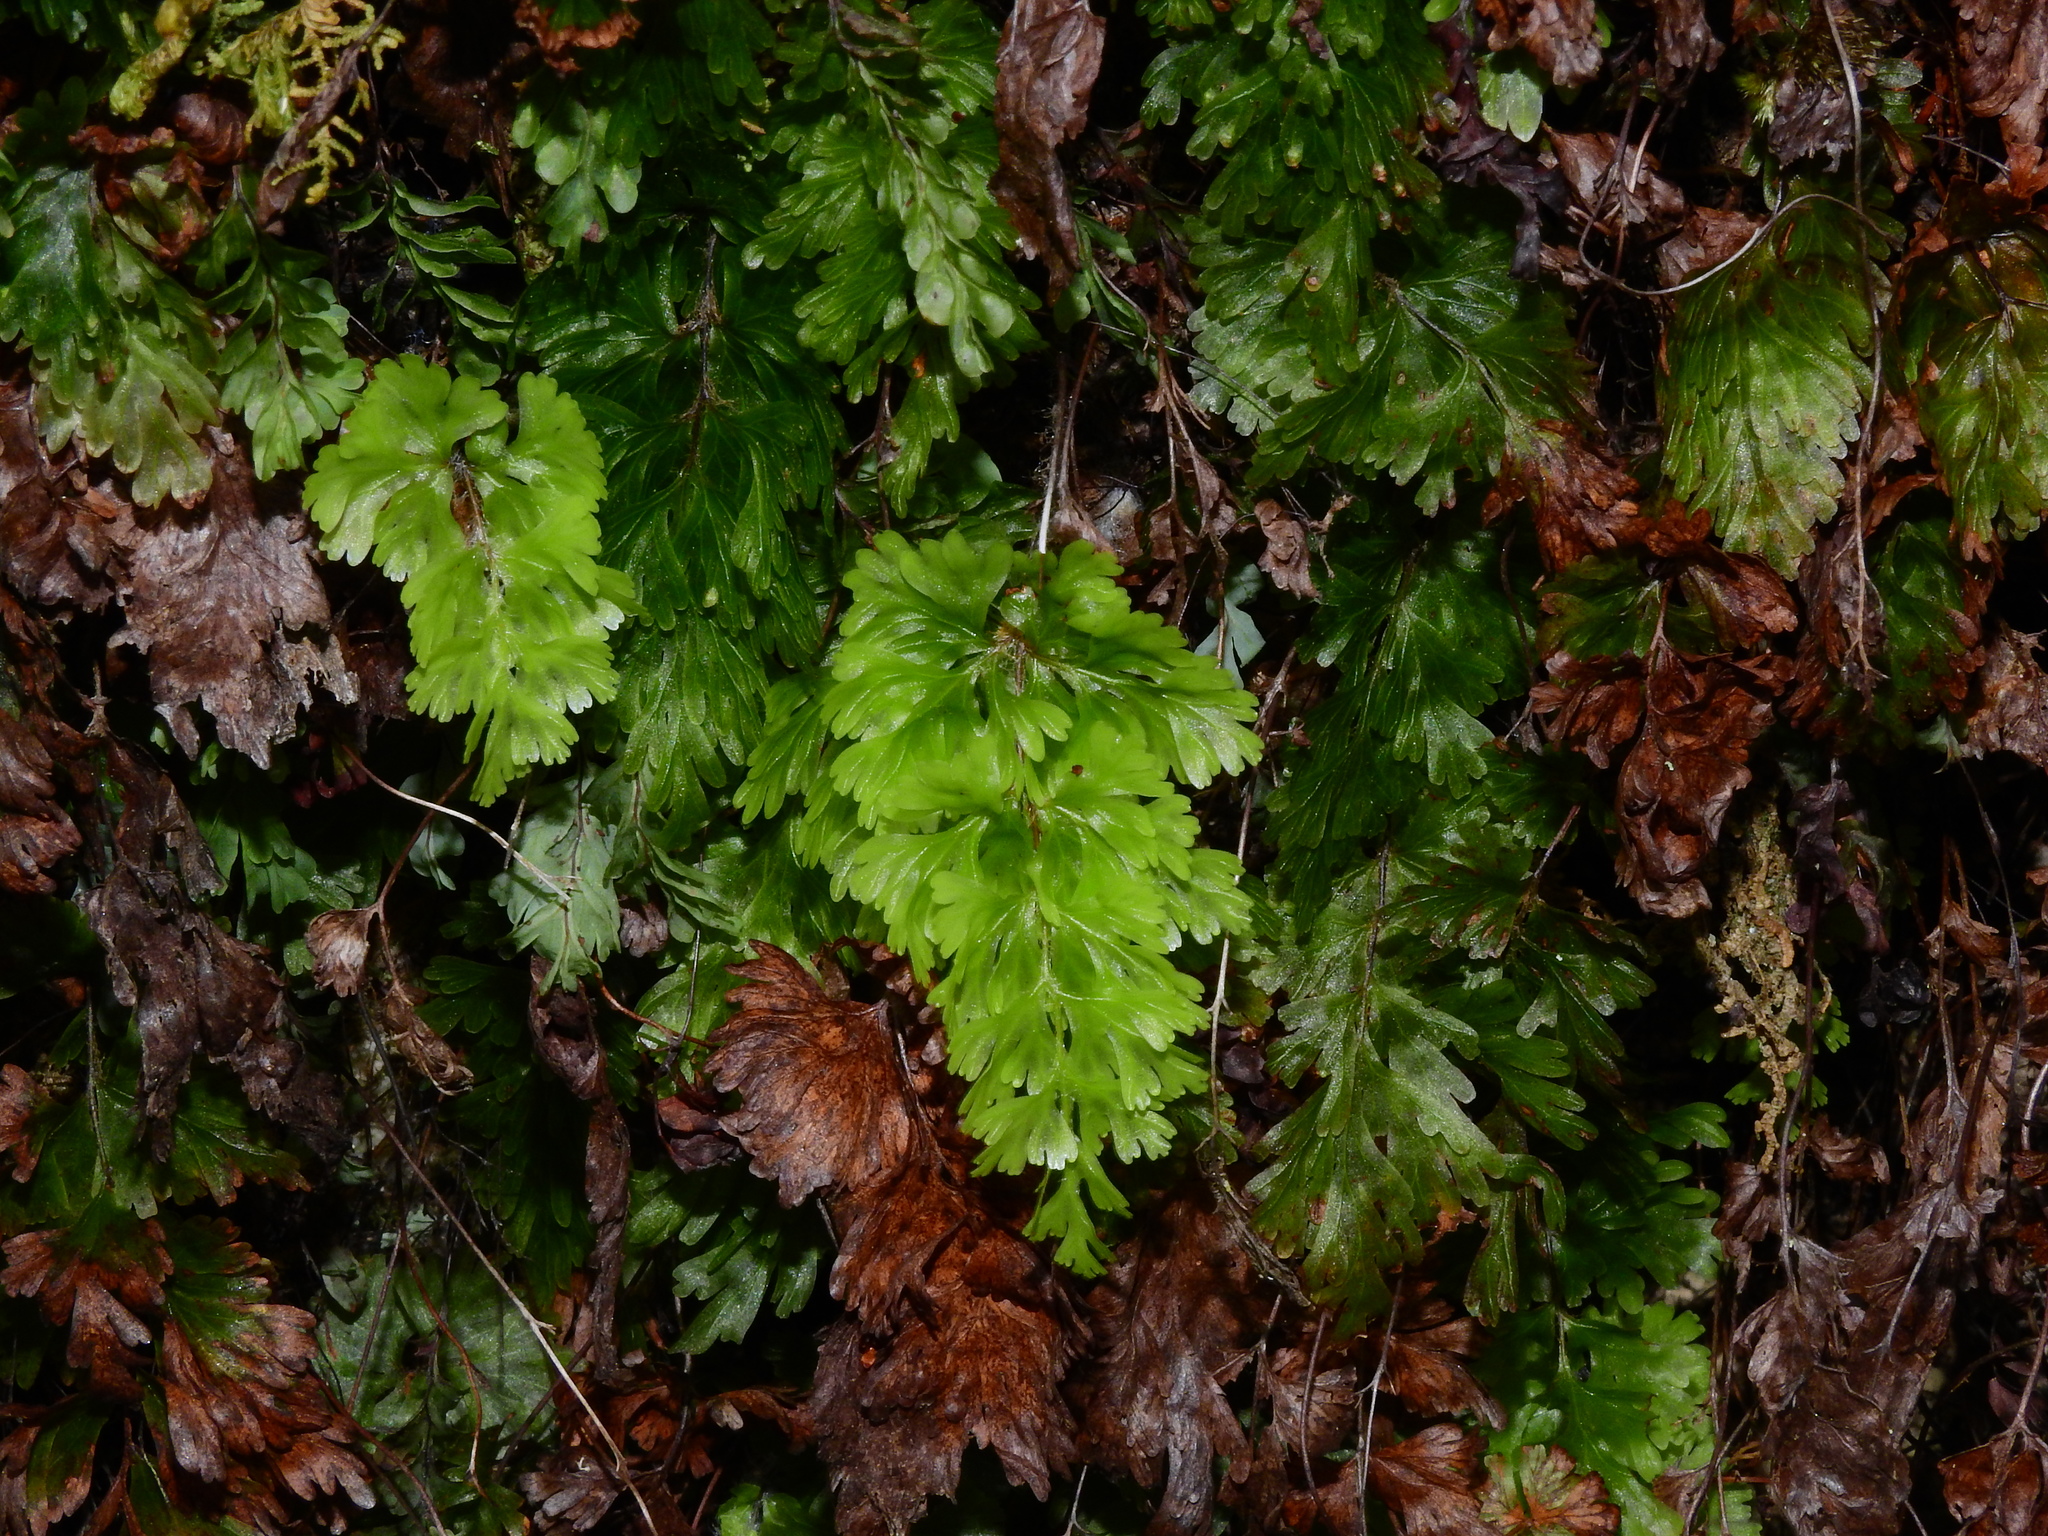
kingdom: Plantae
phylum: Tracheophyta
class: Polypodiopsida
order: Hymenophyllales
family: Hymenophyllaceae
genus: Hymenophyllum
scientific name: Hymenophyllum flabellatum
